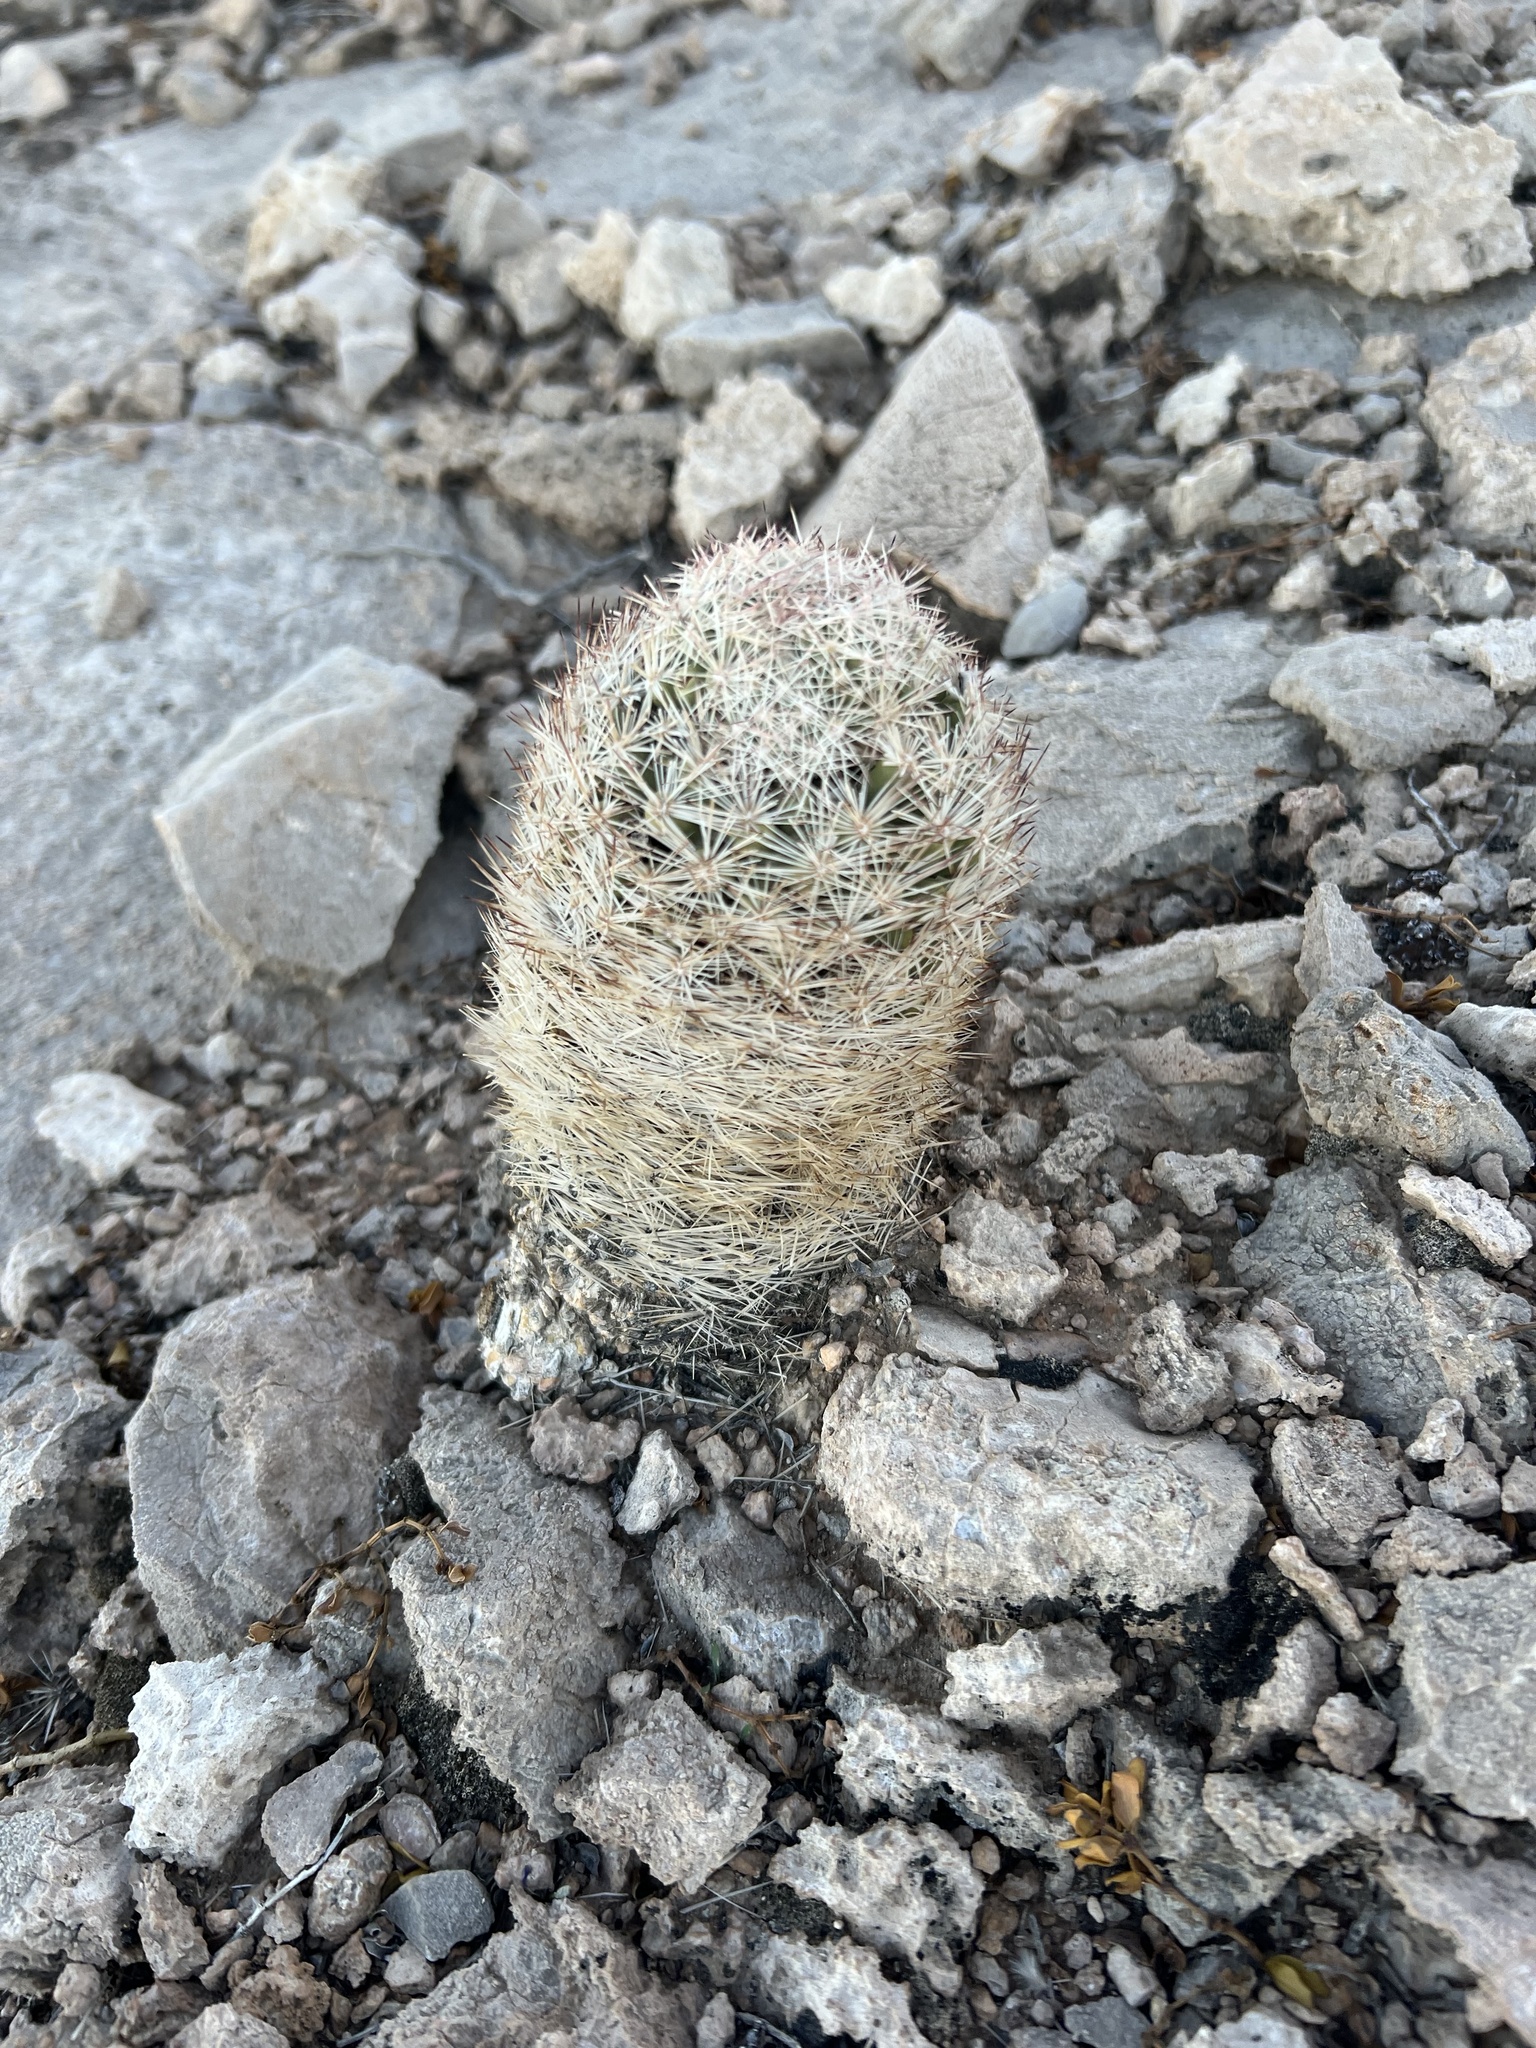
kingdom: Plantae
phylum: Tracheophyta
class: Magnoliopsida
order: Caryophyllales
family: Cactaceae
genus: Pelecyphora
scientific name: Pelecyphora dasyacantha
